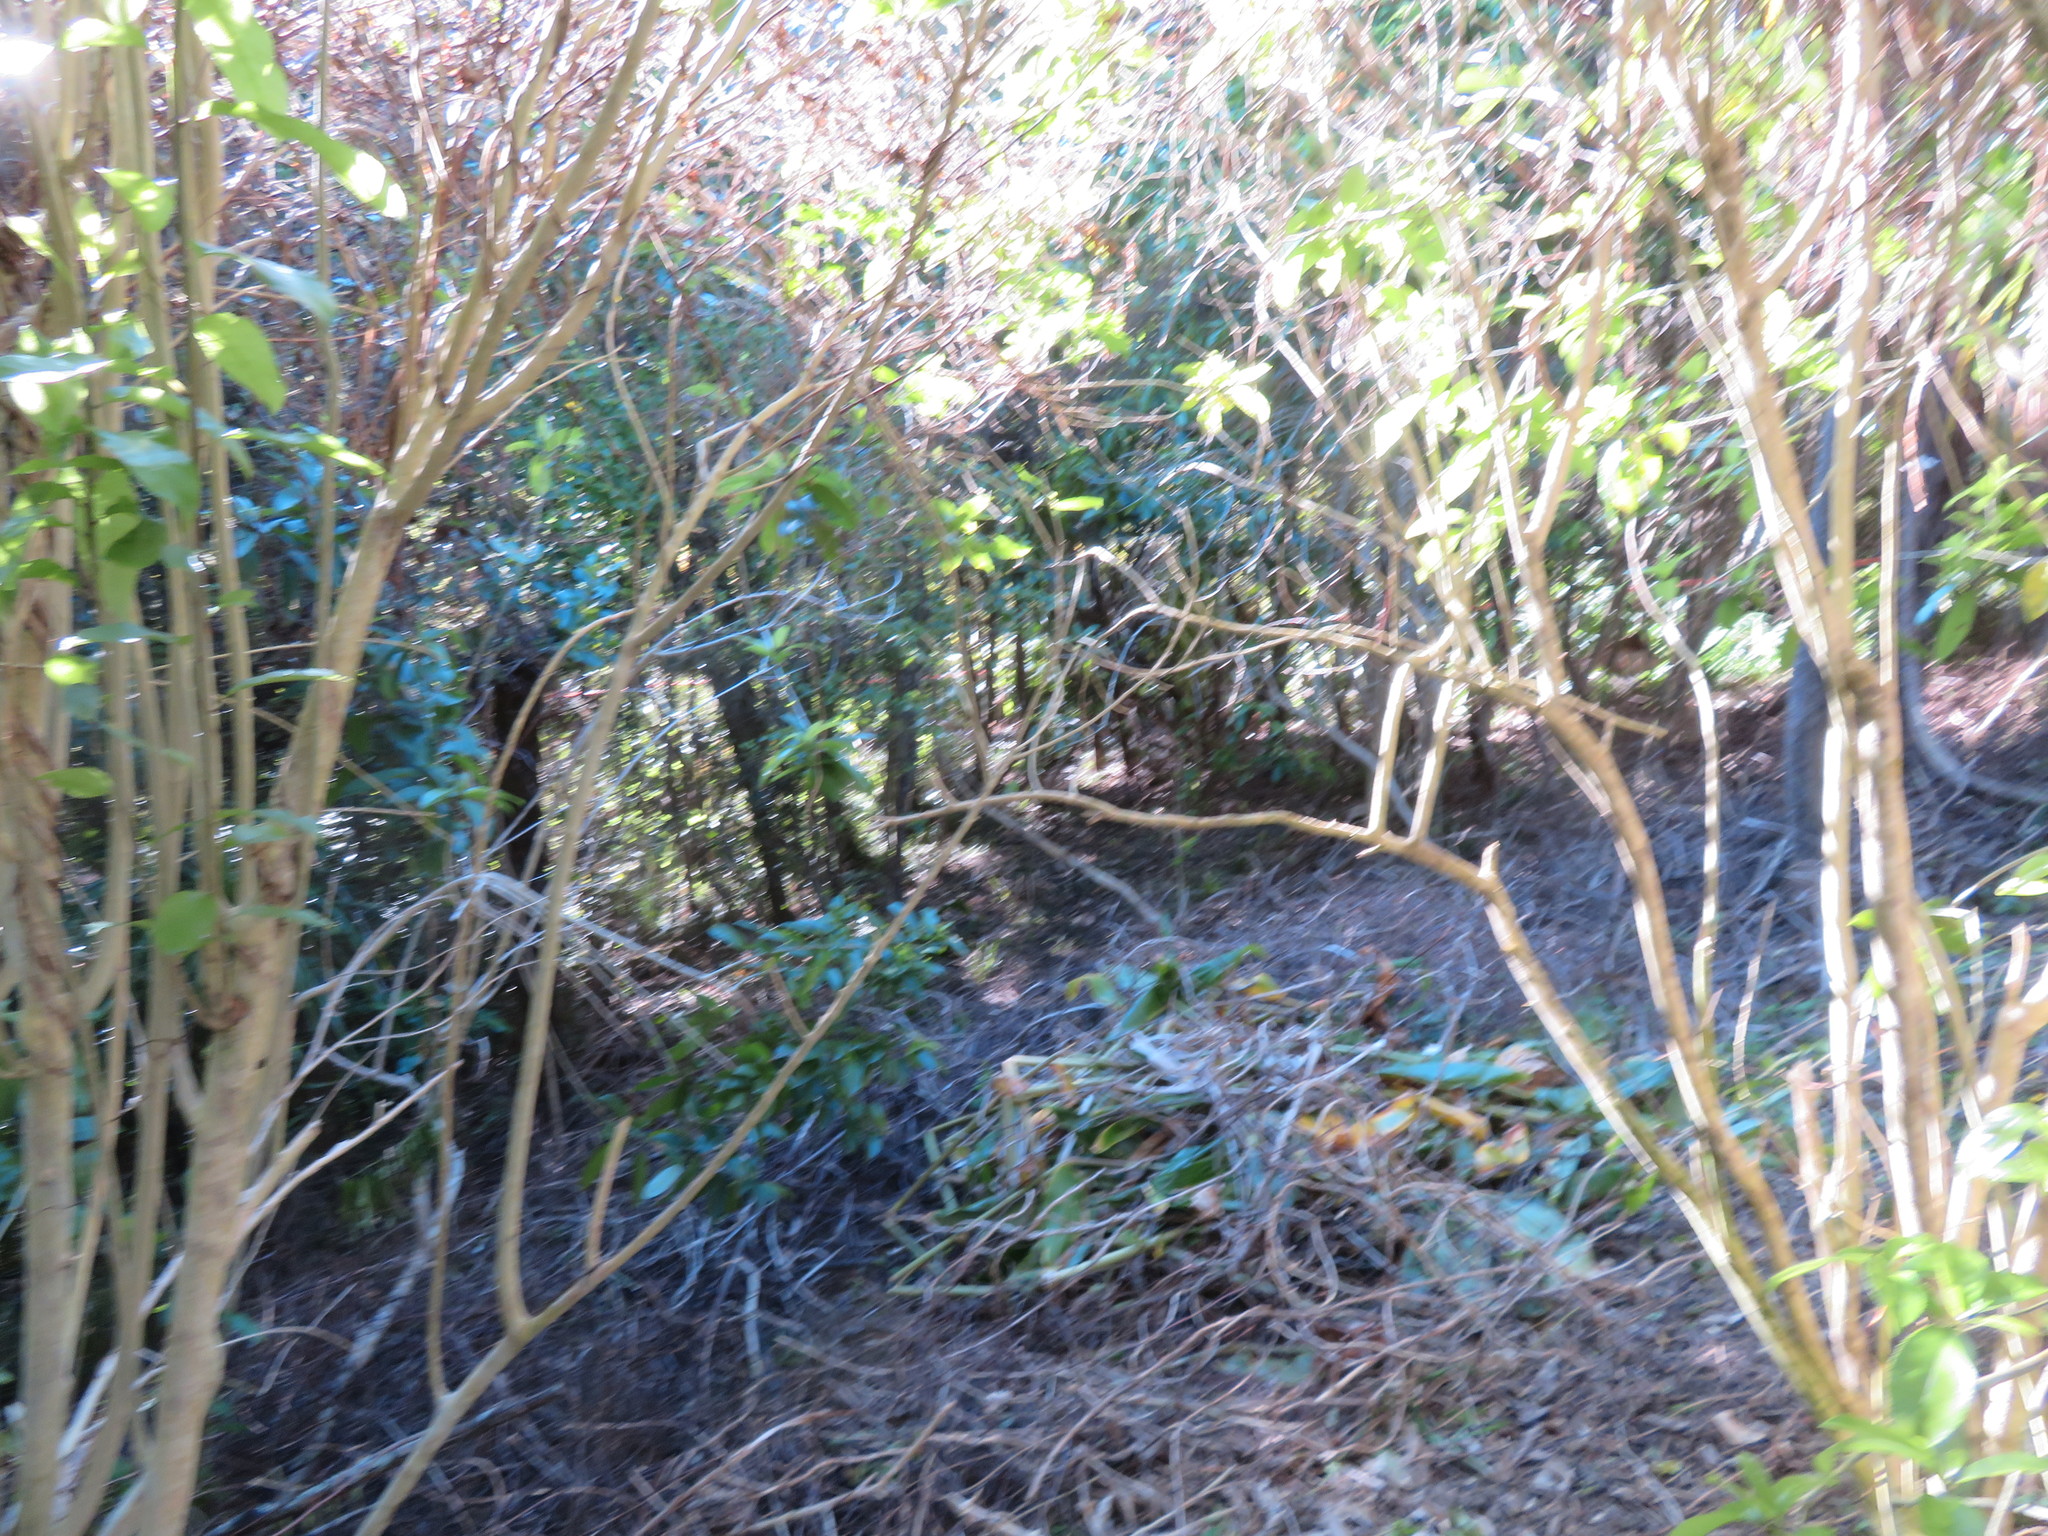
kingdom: Plantae
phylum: Tracheophyta
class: Magnoliopsida
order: Malpighiales
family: Violaceae
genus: Melicytus
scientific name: Melicytus ramiflorus
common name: Mahoe
